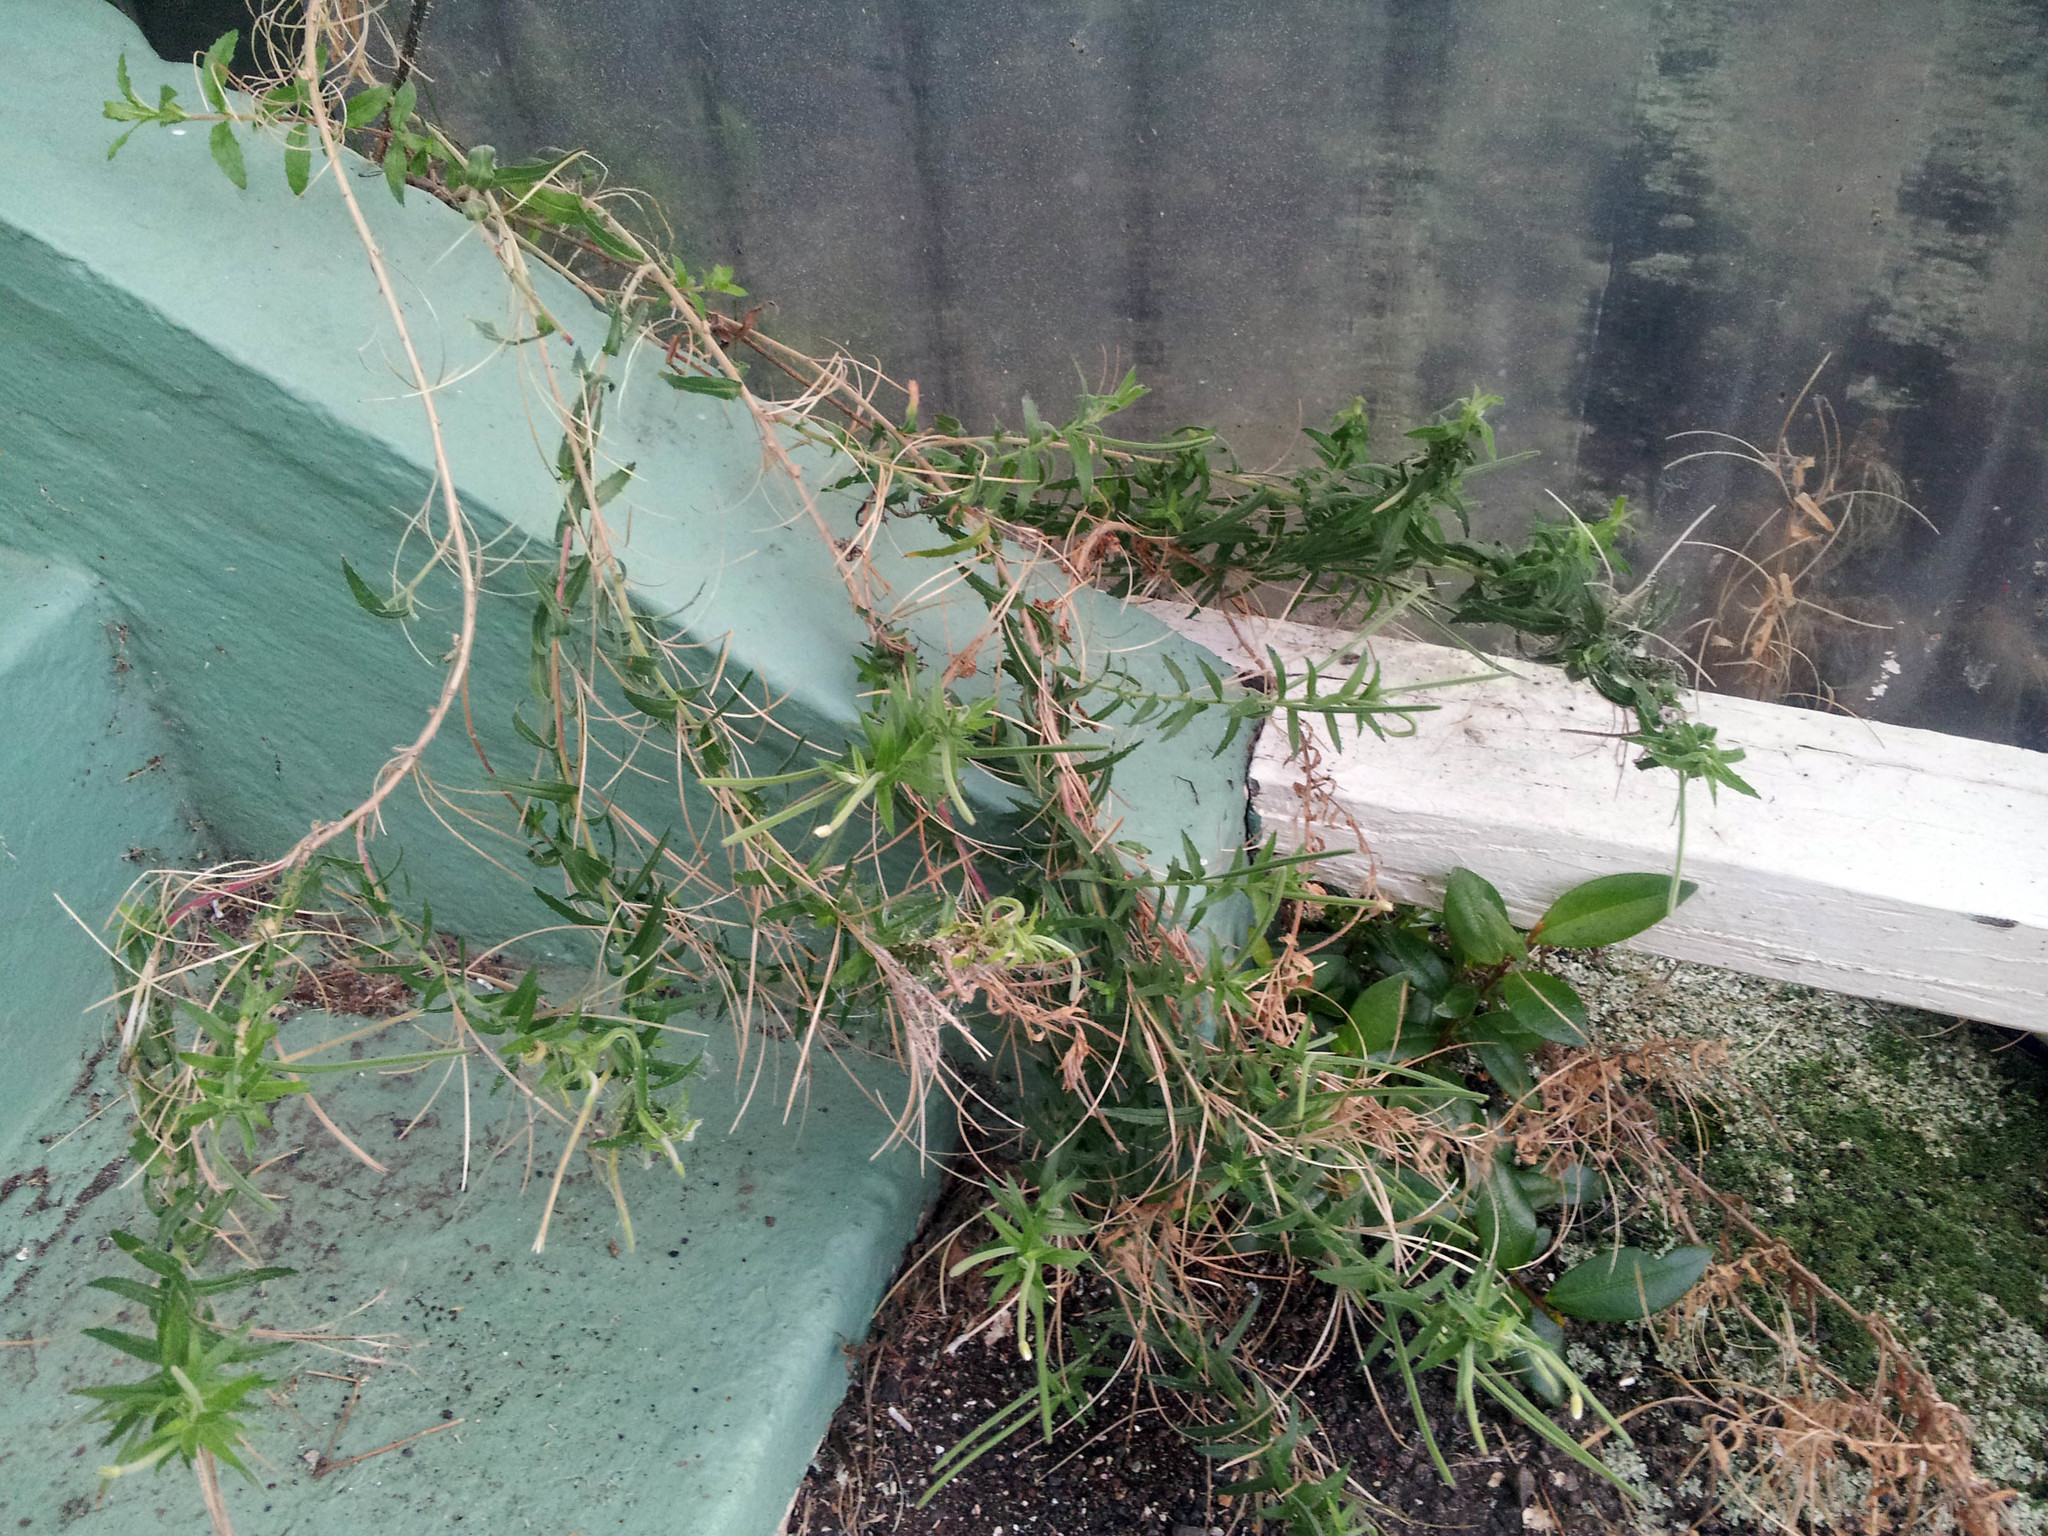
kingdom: Plantae
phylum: Tracheophyta
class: Magnoliopsida
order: Myrtales
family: Onagraceae
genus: Epilobium
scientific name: Epilobium hirtigerum
